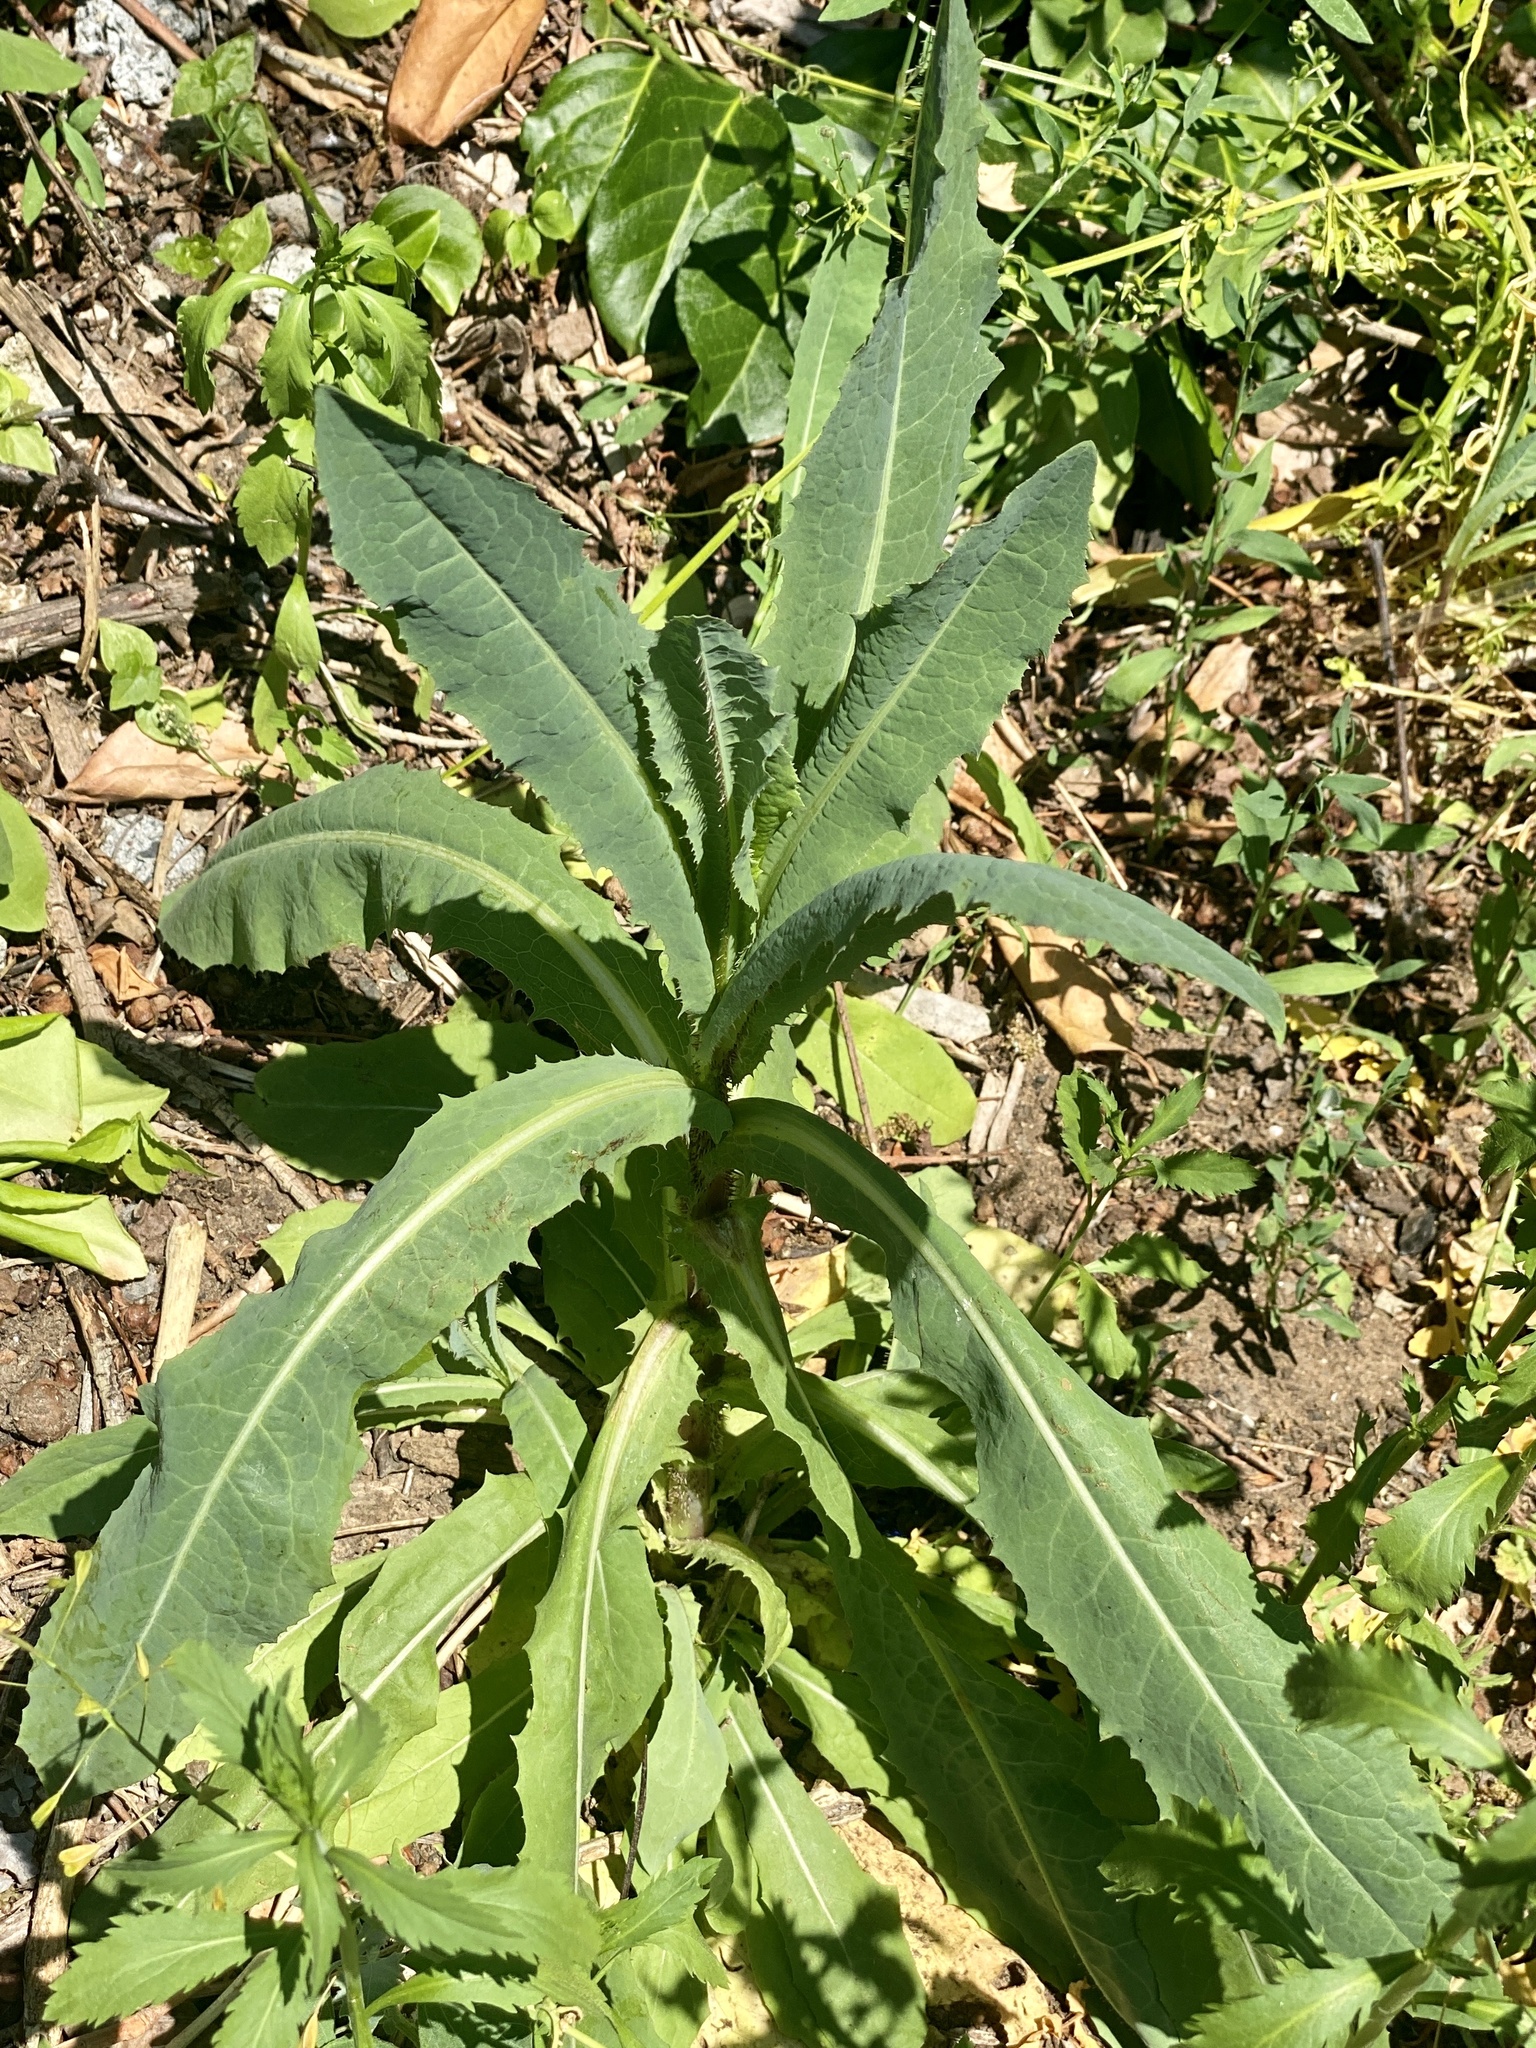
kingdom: Plantae
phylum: Tracheophyta
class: Magnoliopsida
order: Asterales
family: Asteraceae
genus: Lactuca
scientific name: Lactuca serriola
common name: Prickly lettuce
